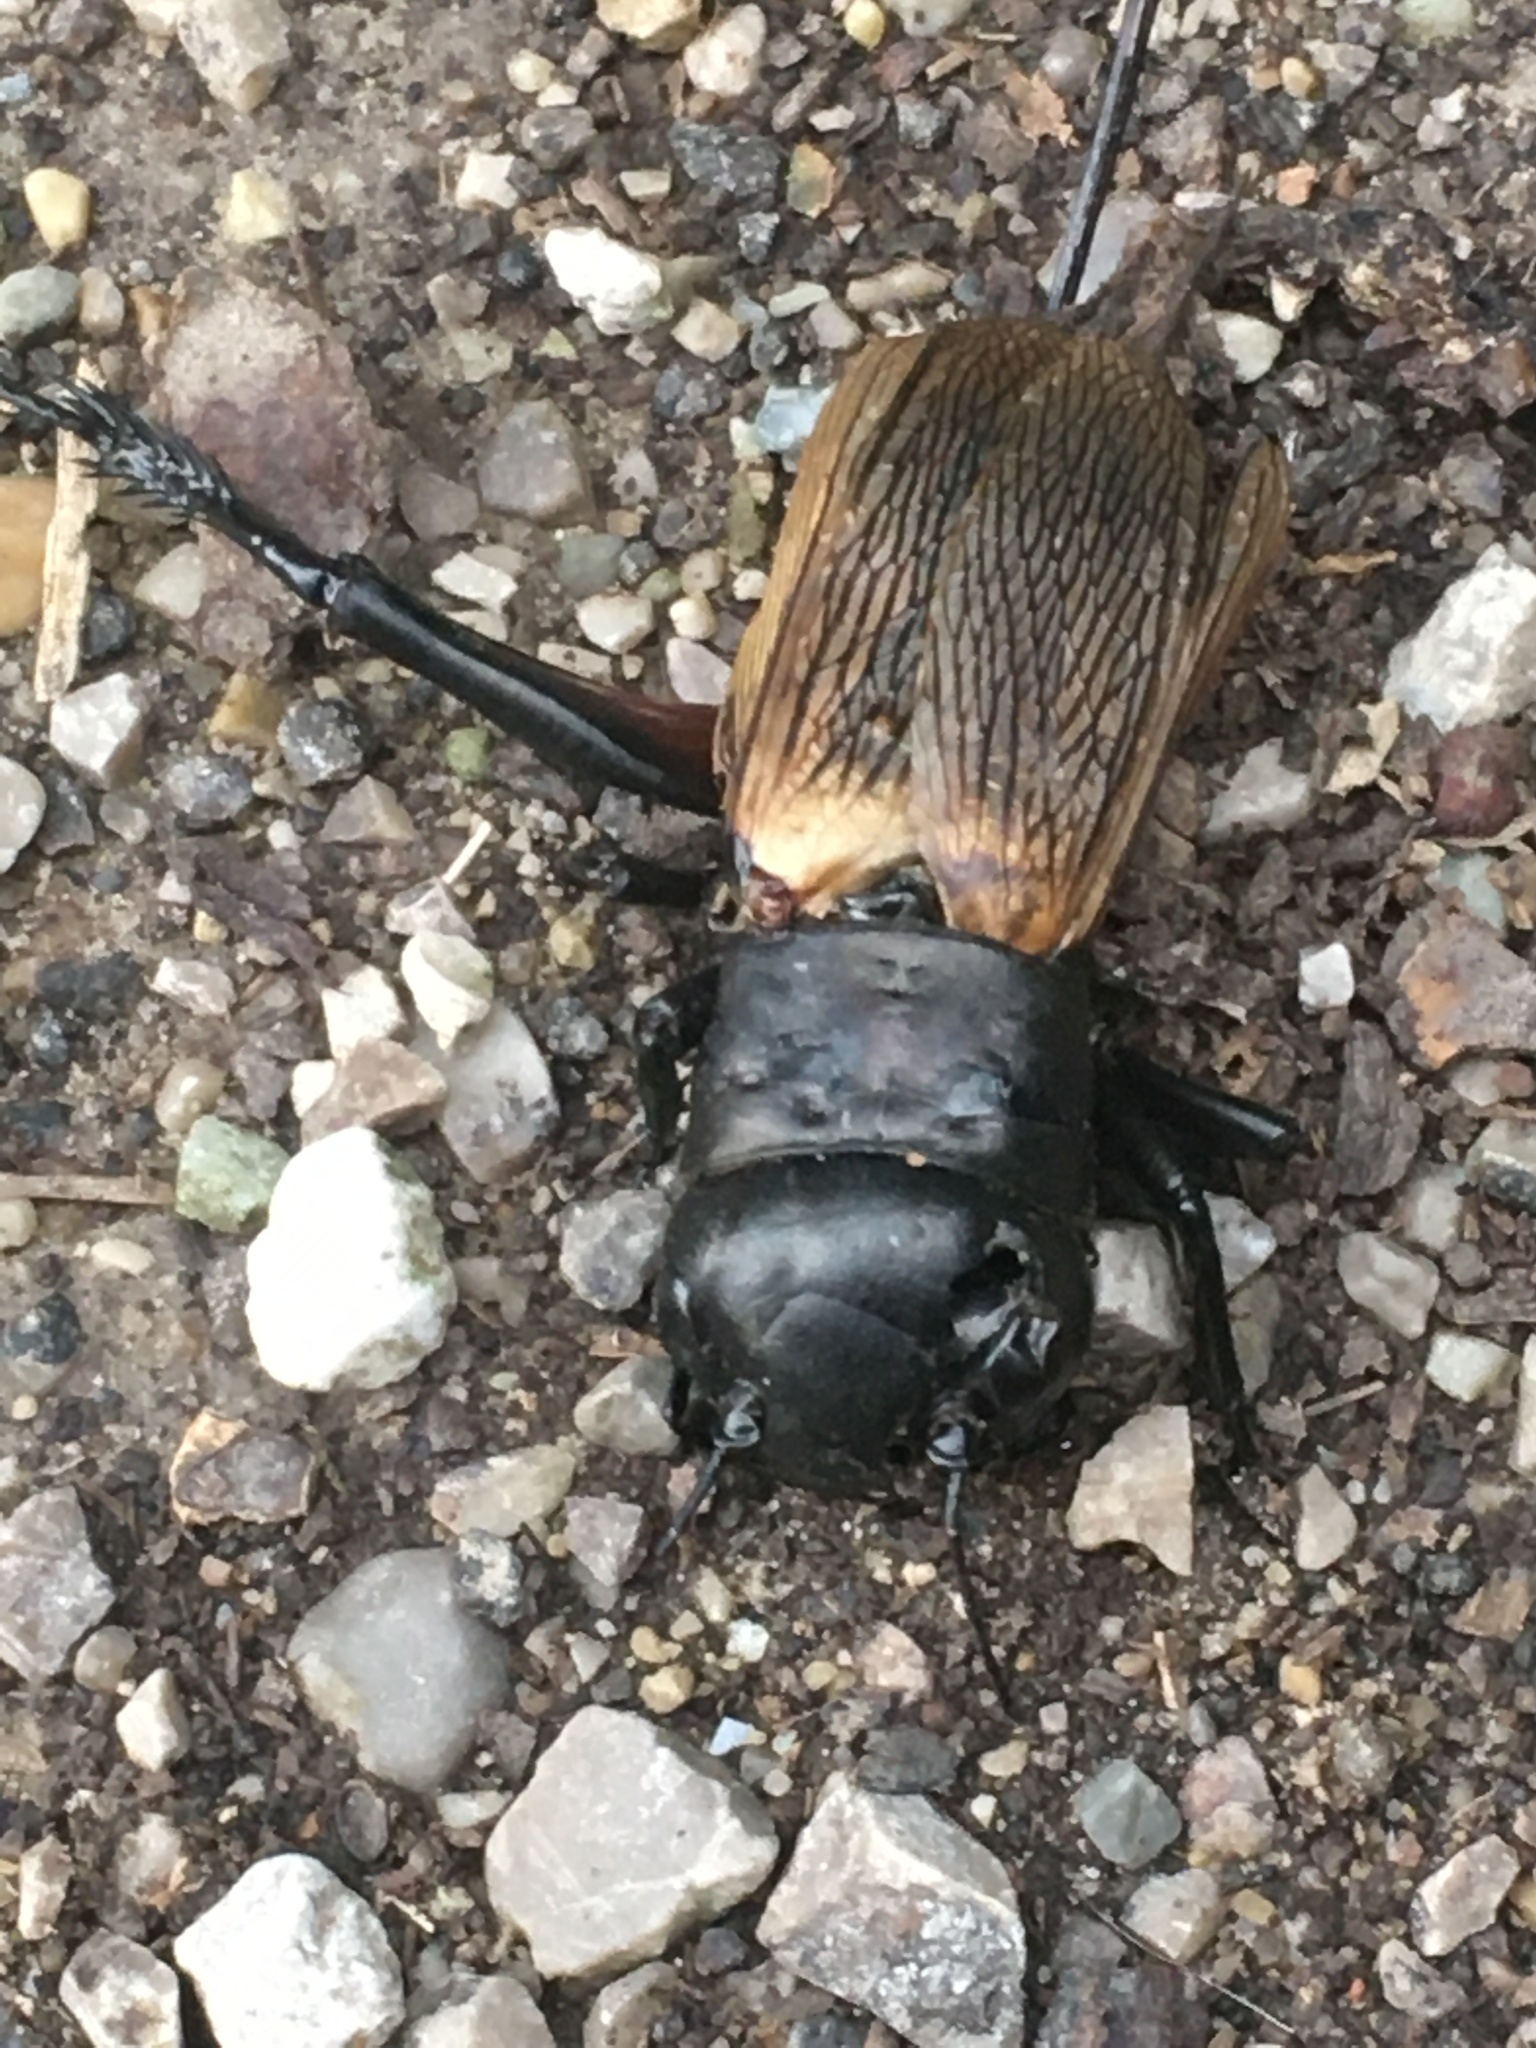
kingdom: Animalia
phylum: Arthropoda
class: Insecta
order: Orthoptera
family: Gryllidae
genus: Gryllus
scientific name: Gryllus campestris
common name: Field cricket
